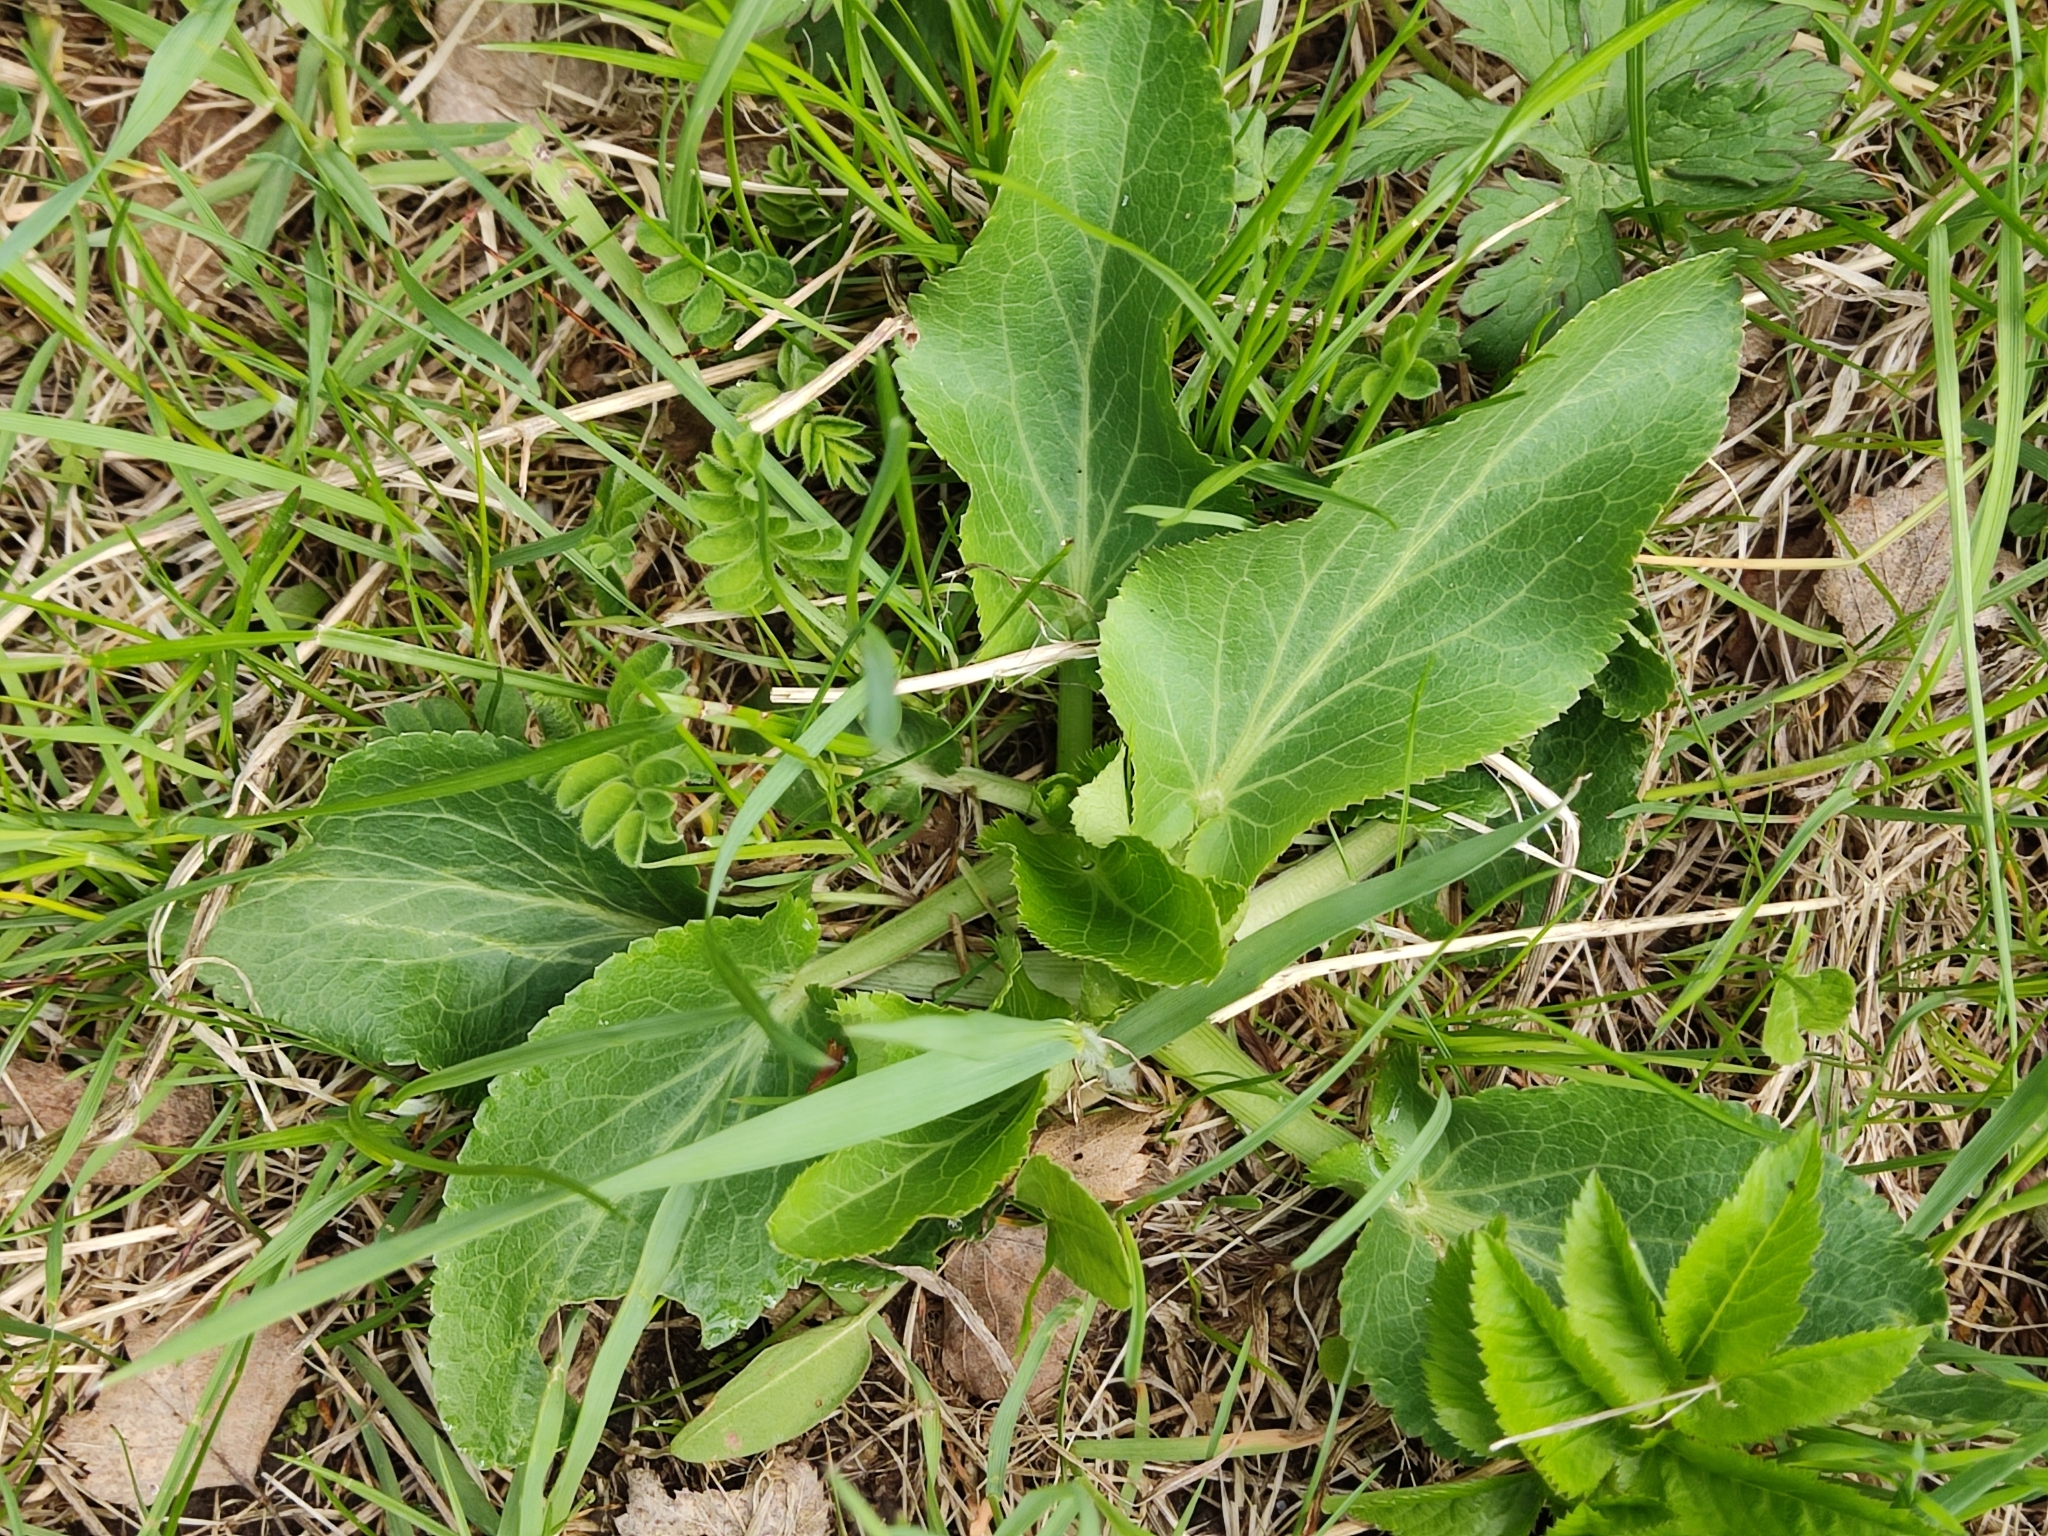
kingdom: Plantae
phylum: Tracheophyta
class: Magnoliopsida
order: Apiales
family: Apiaceae
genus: Eryngium
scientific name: Eryngium planum
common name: Blue eryngo
